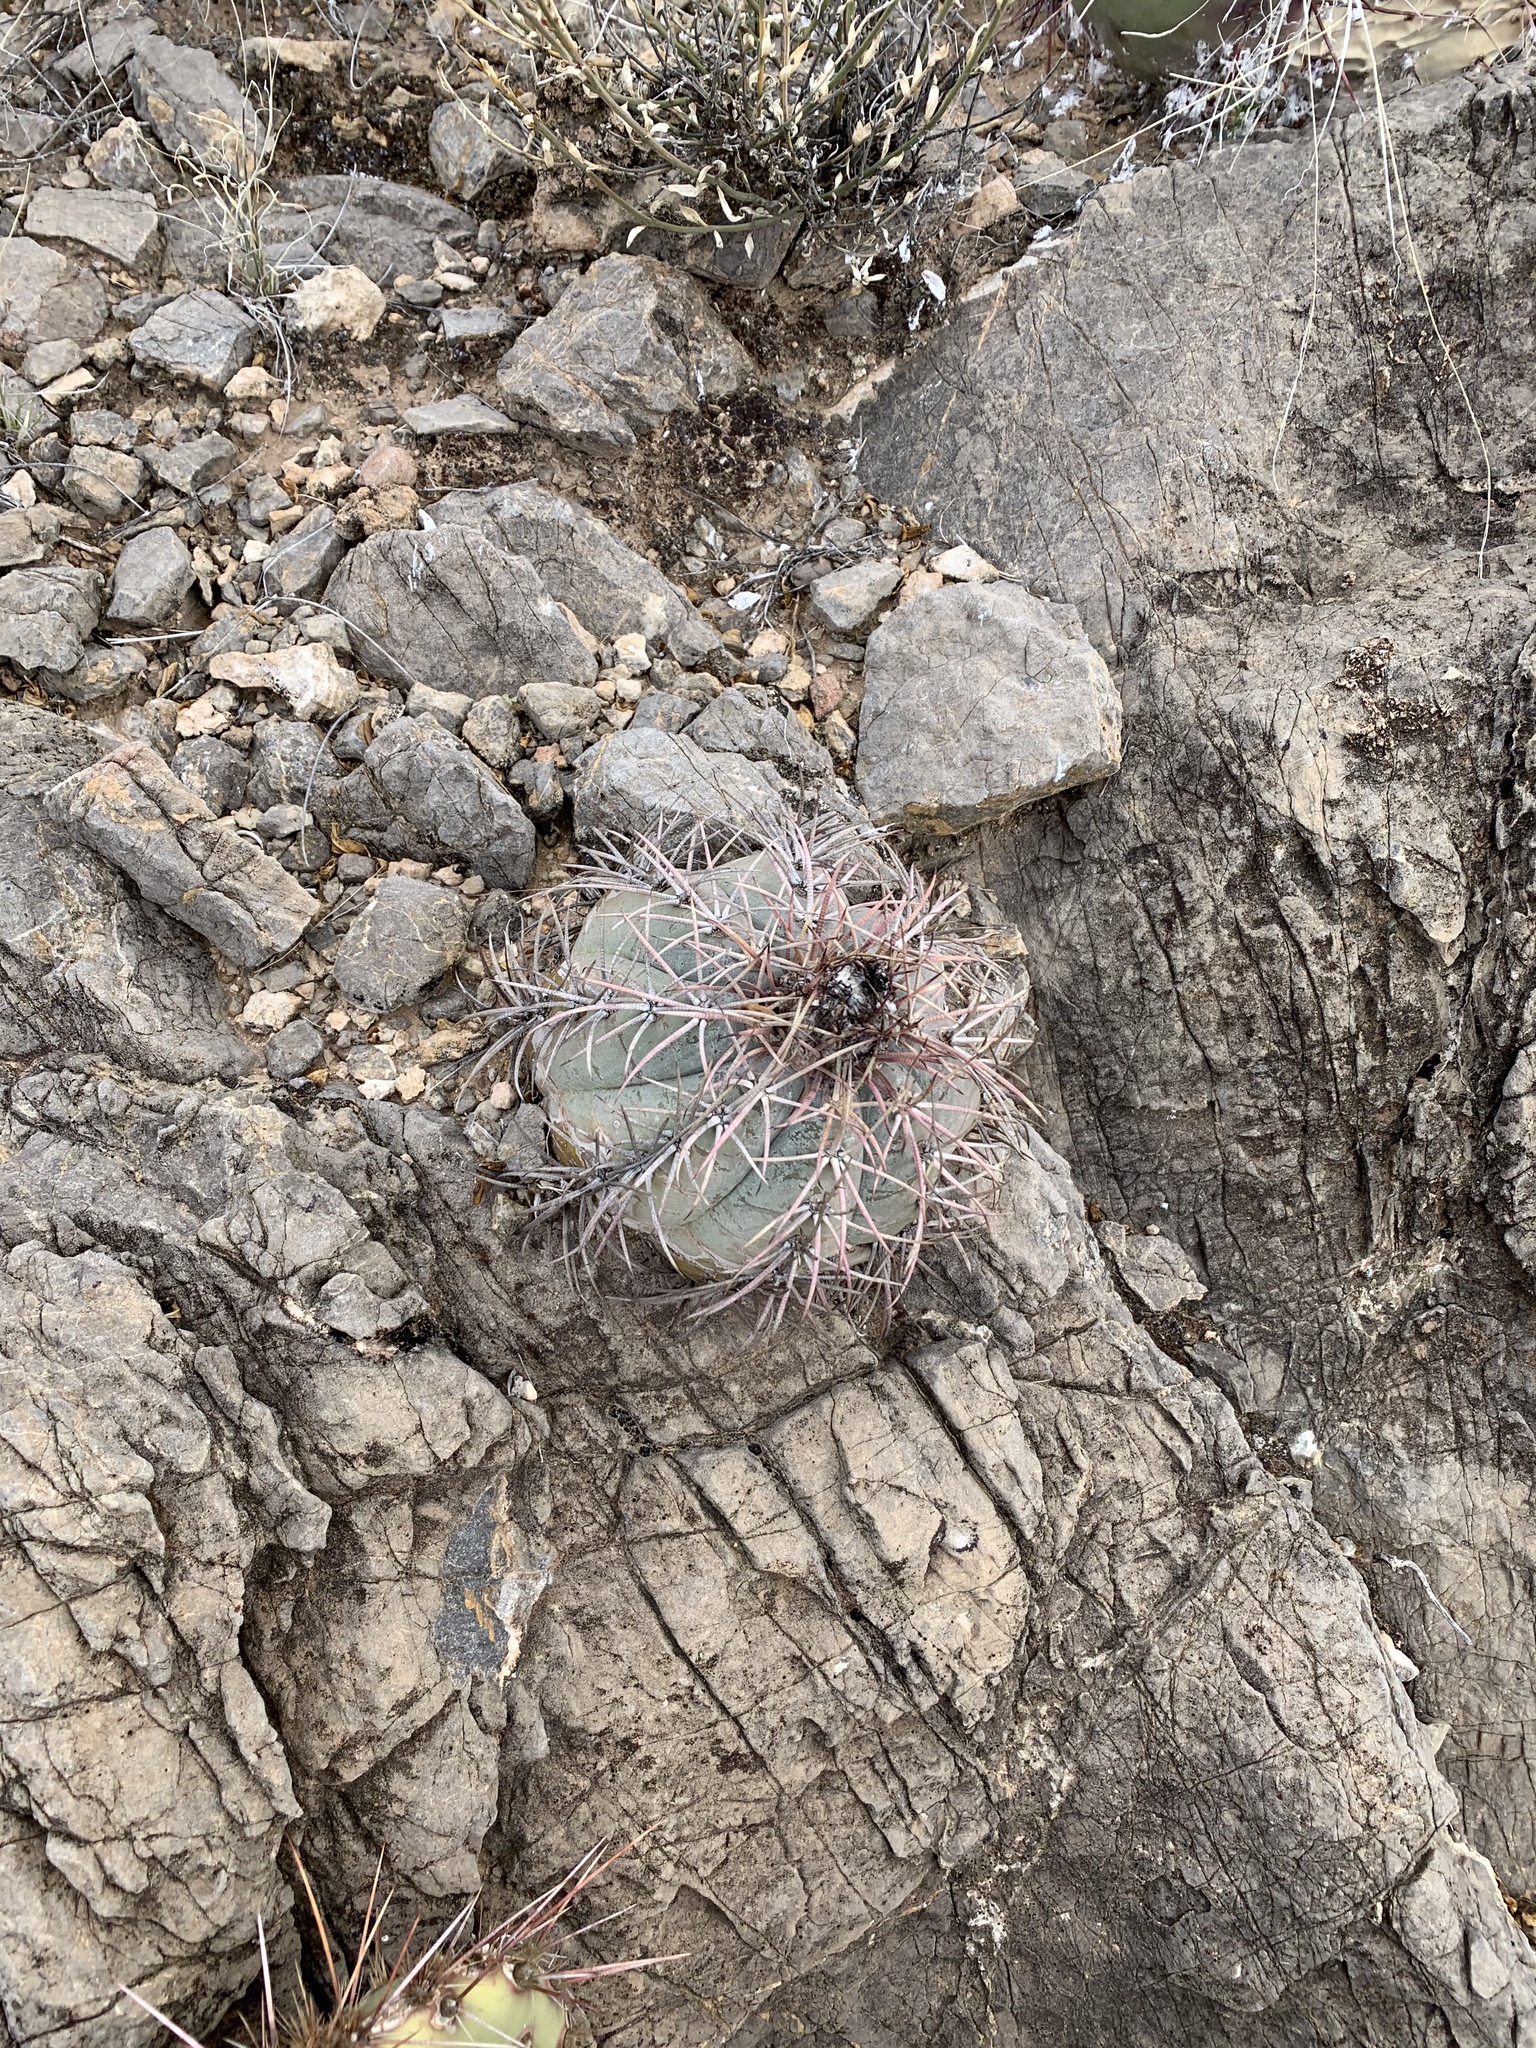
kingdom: Plantae
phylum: Tracheophyta
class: Magnoliopsida
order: Caryophyllales
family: Cactaceae
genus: Echinocactus
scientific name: Echinocactus horizonthalonius
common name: Devilshead
